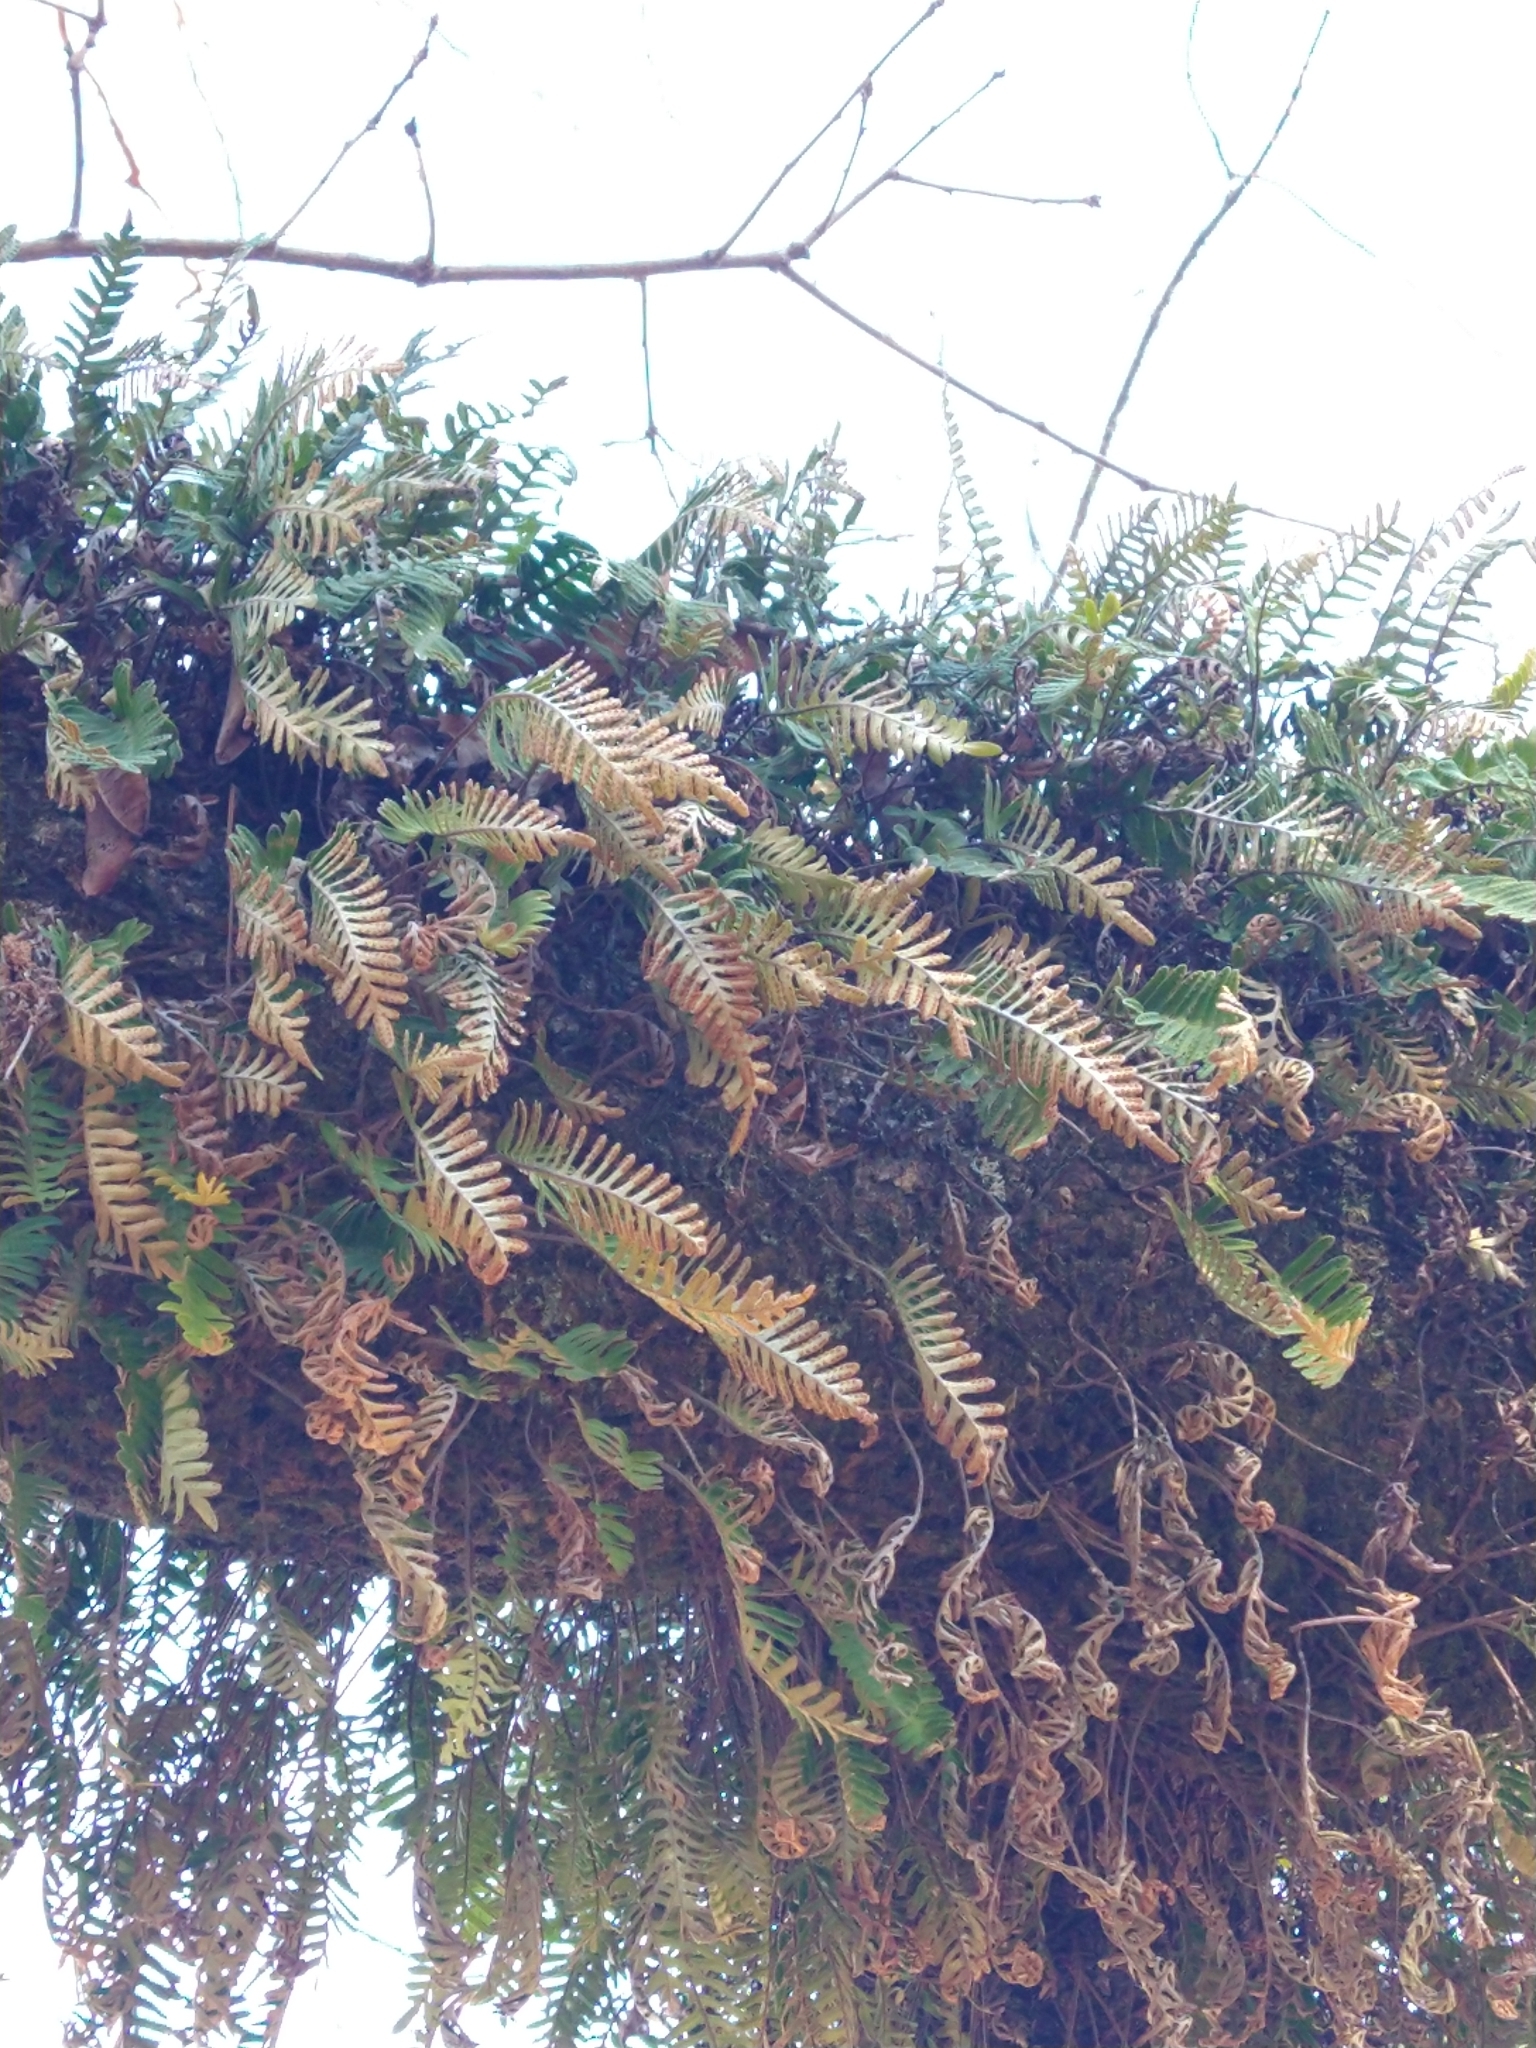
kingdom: Plantae
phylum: Tracheophyta
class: Polypodiopsida
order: Polypodiales
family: Polypodiaceae
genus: Pleopeltis
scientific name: Pleopeltis michauxiana
